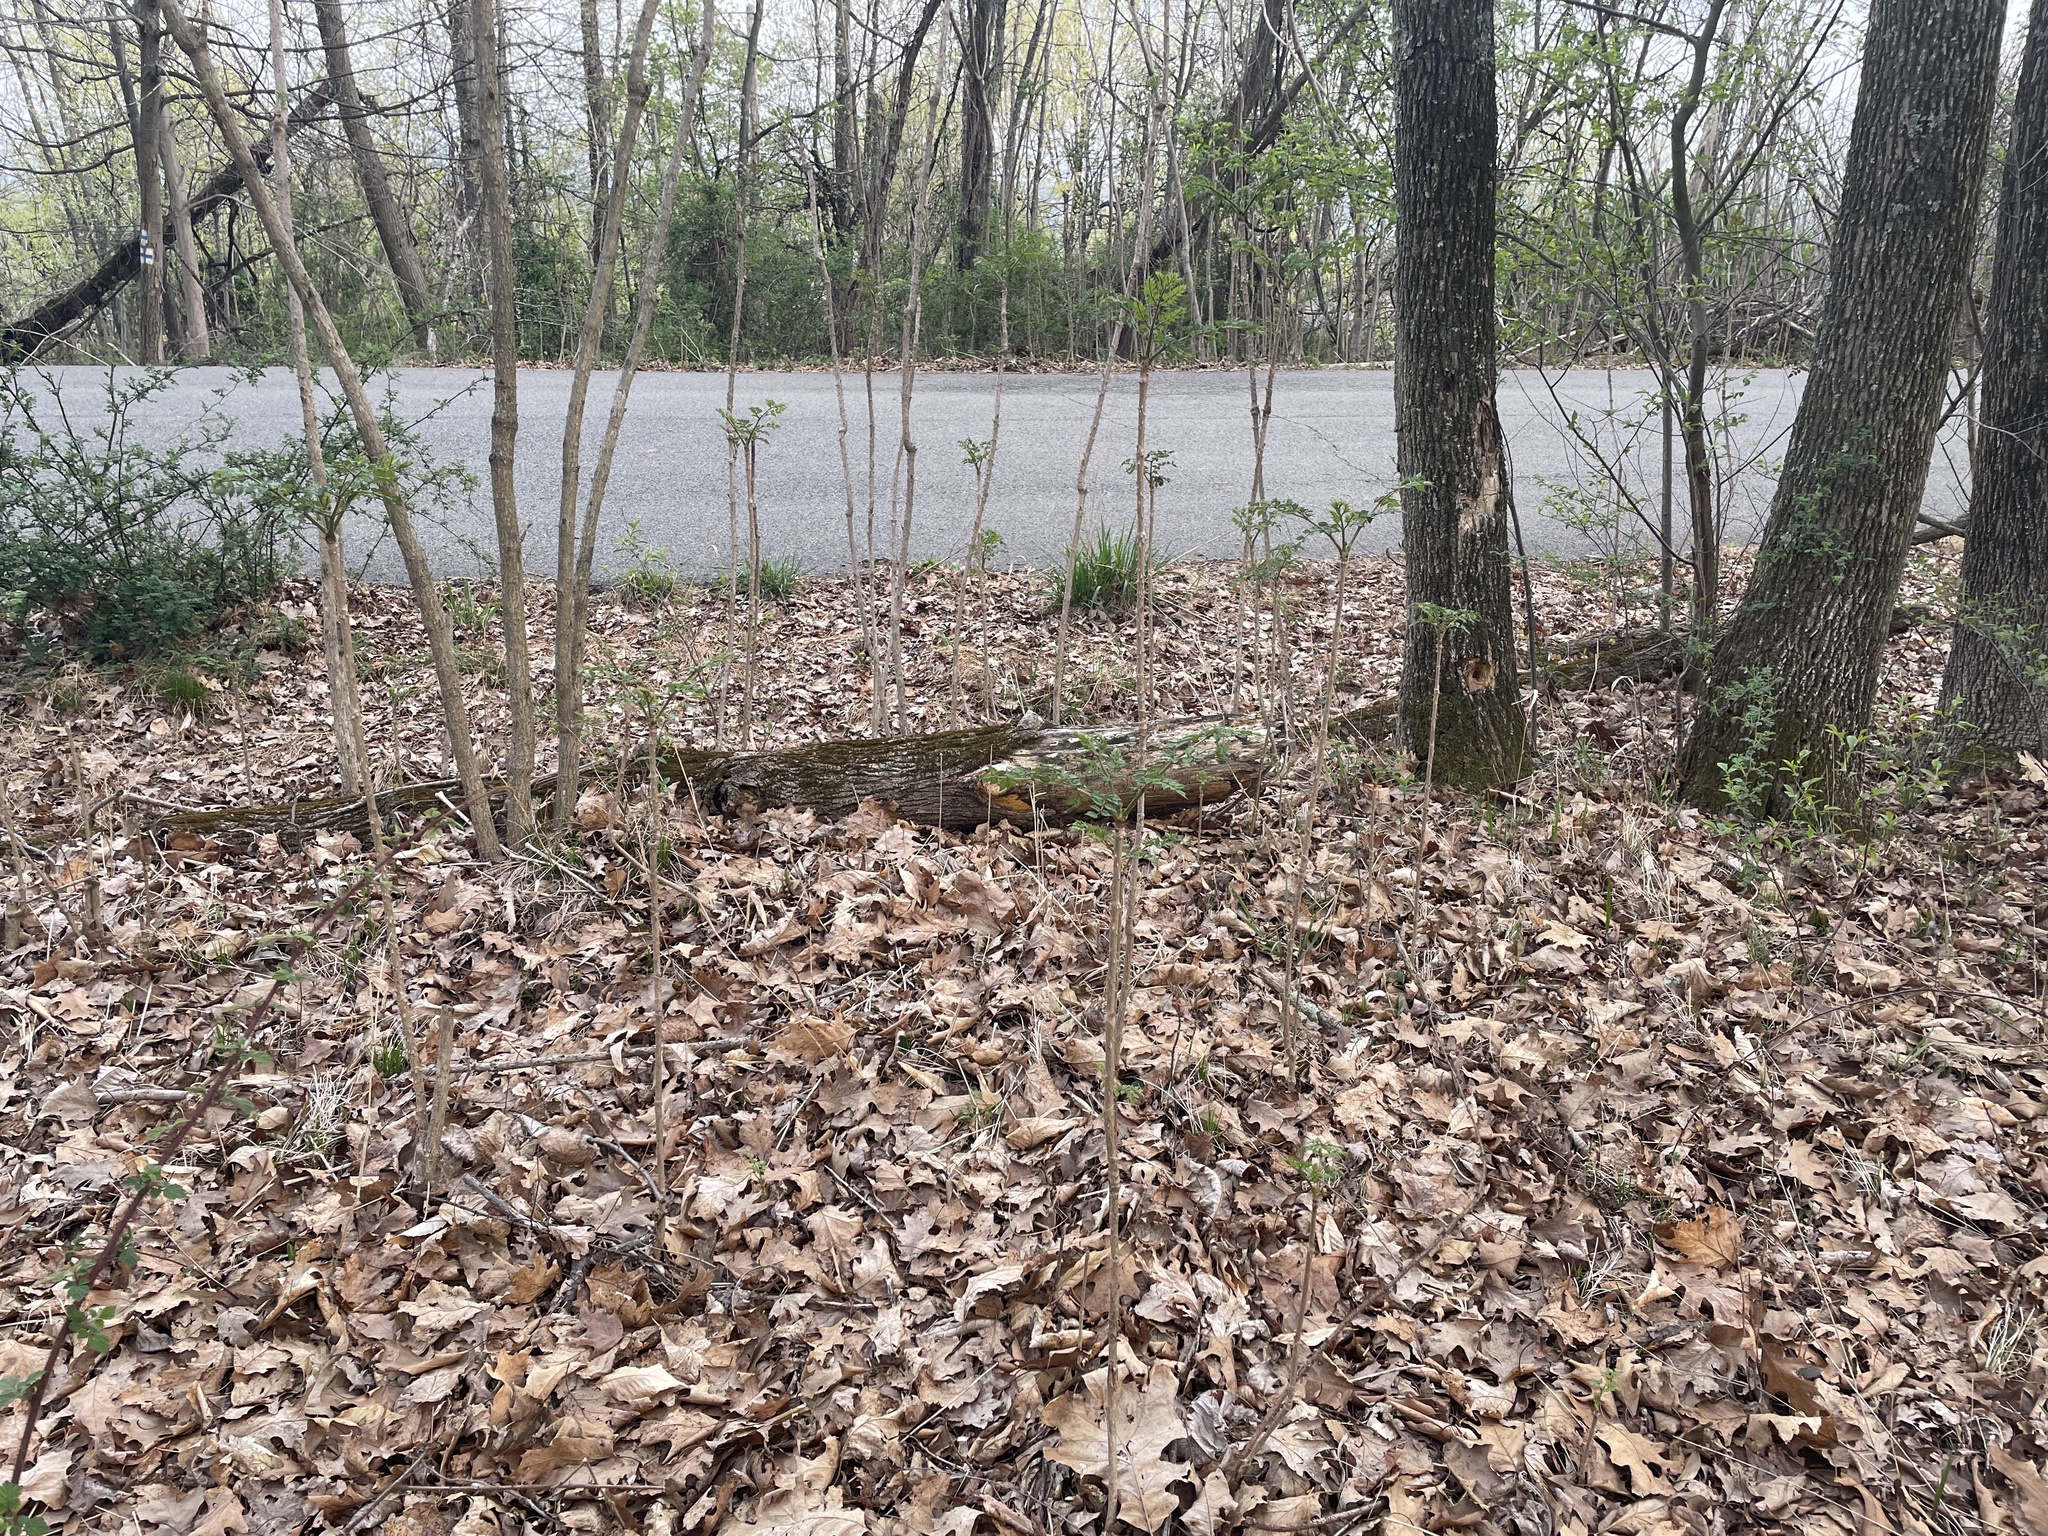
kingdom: Plantae
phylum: Tracheophyta
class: Magnoliopsida
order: Apiales
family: Araliaceae
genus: Aralia
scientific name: Aralia elata
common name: Japanese angelica-tree
